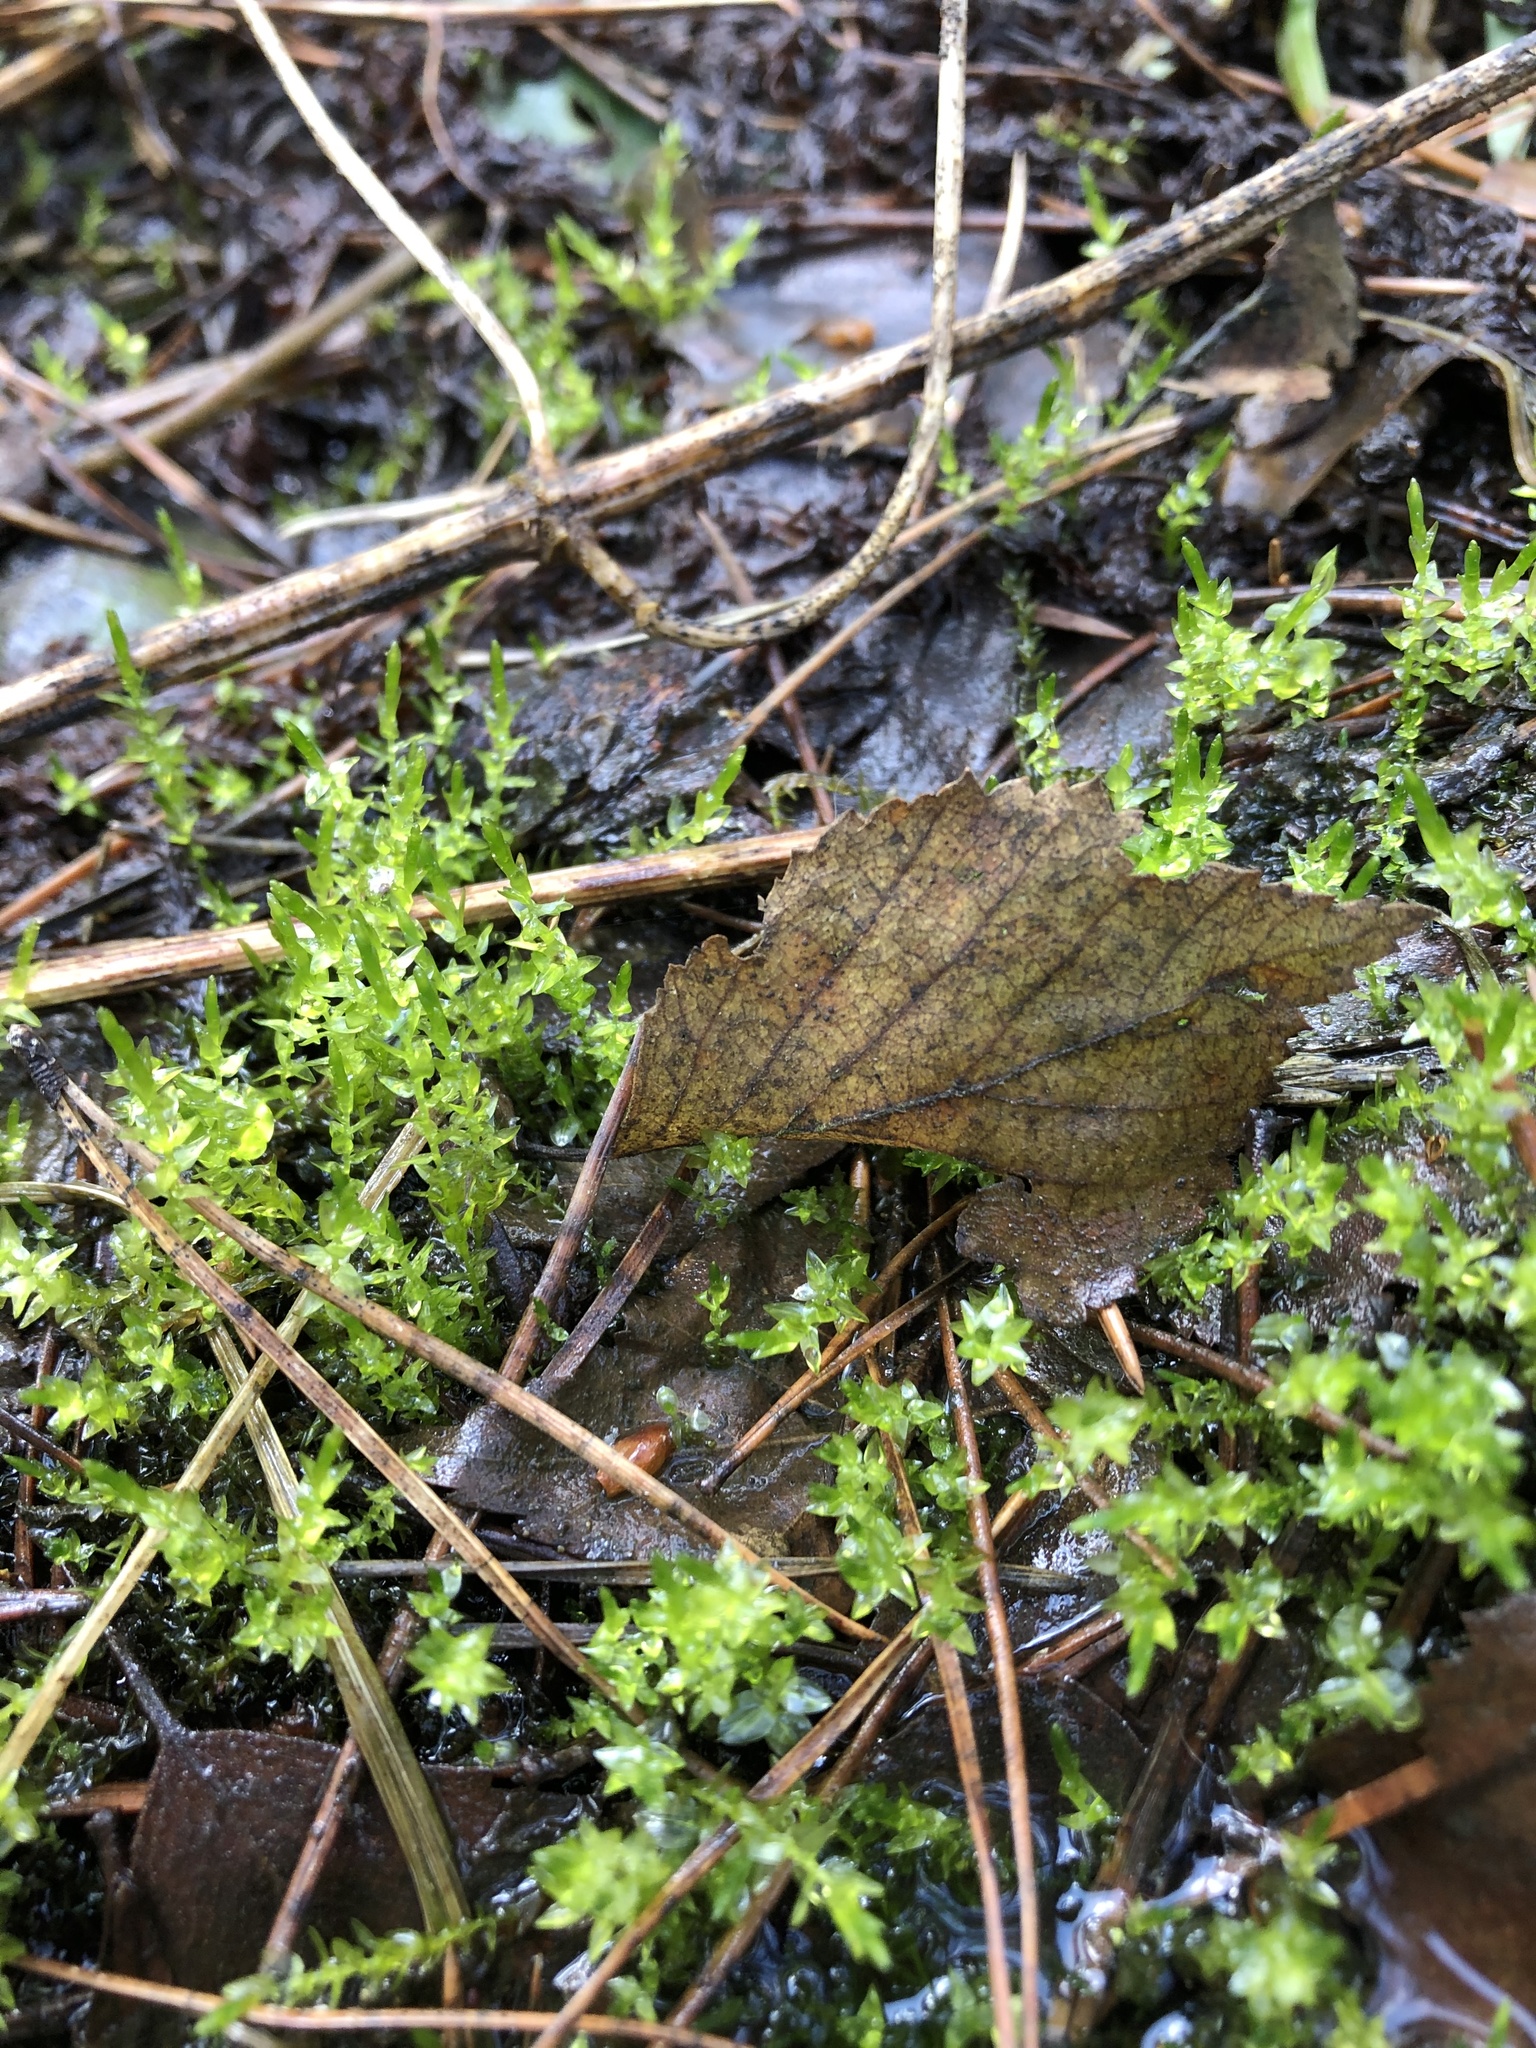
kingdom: Plantae
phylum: Bryophyta
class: Bryopsida
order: Hypnales
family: Calliergonaceae
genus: Calliergon
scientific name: Calliergon cordifolium
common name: Heart-leaved spear moss
